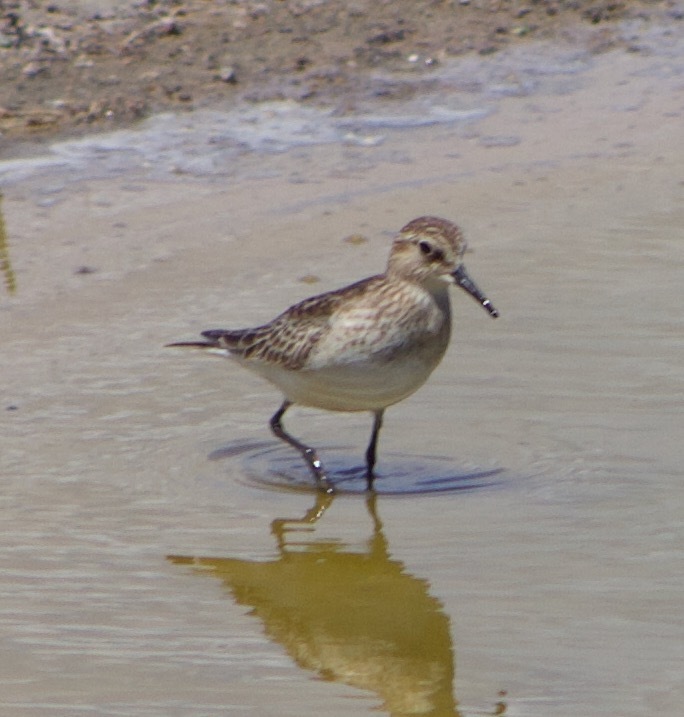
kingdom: Animalia
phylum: Chordata
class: Aves
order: Charadriiformes
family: Scolopacidae
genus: Calidris
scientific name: Calidris bairdii
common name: Baird's sandpiper
